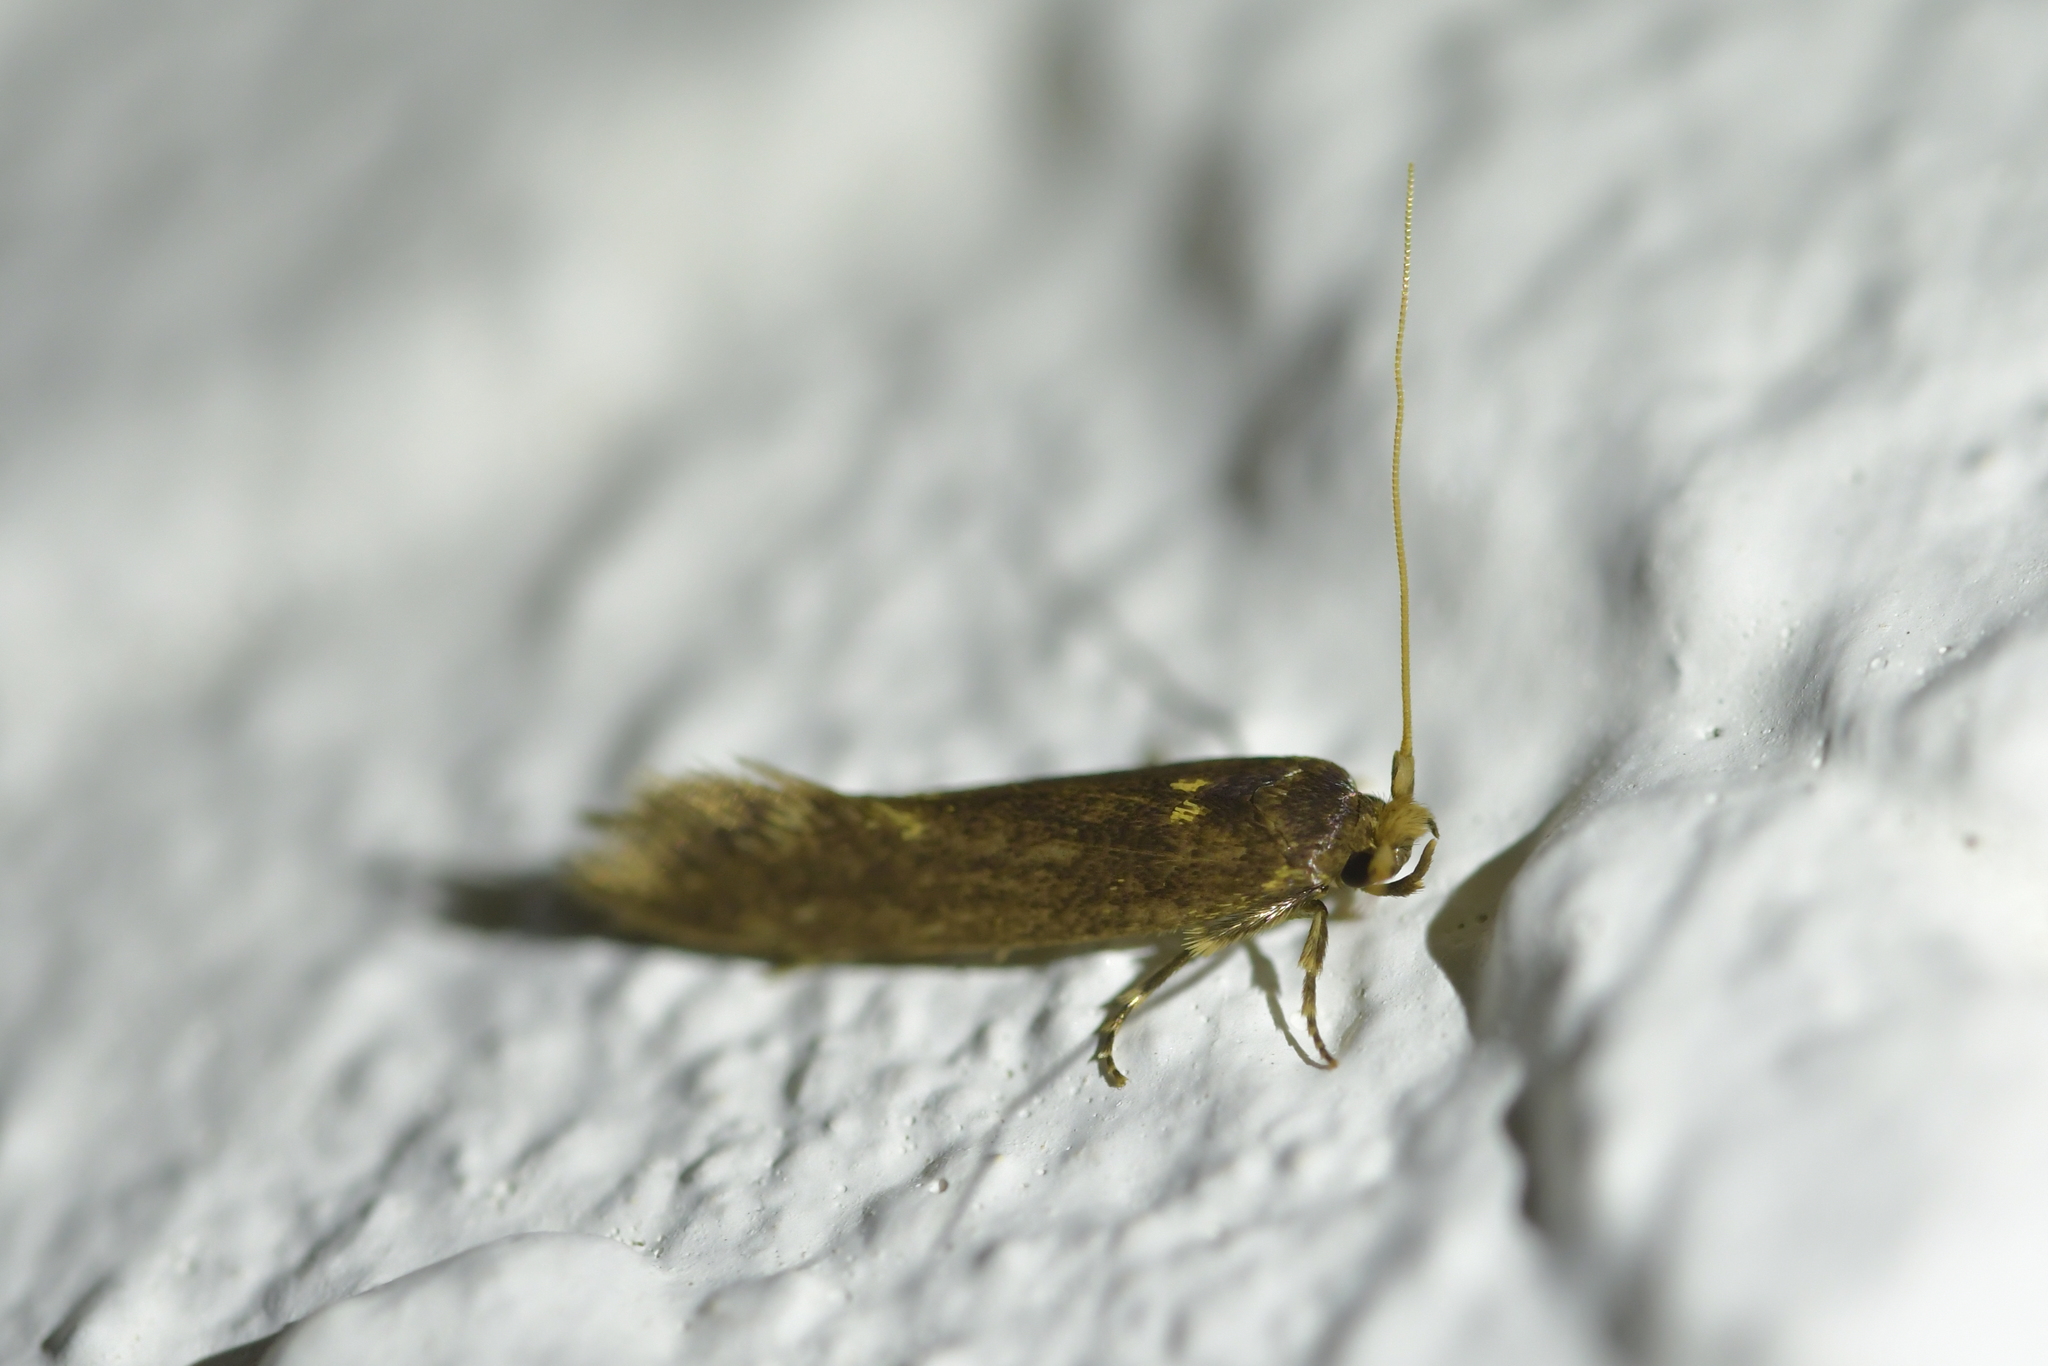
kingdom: Animalia
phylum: Arthropoda
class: Insecta
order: Lepidoptera
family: Tineidae
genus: Opogona
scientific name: Opogona omoscopa
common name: Moth
